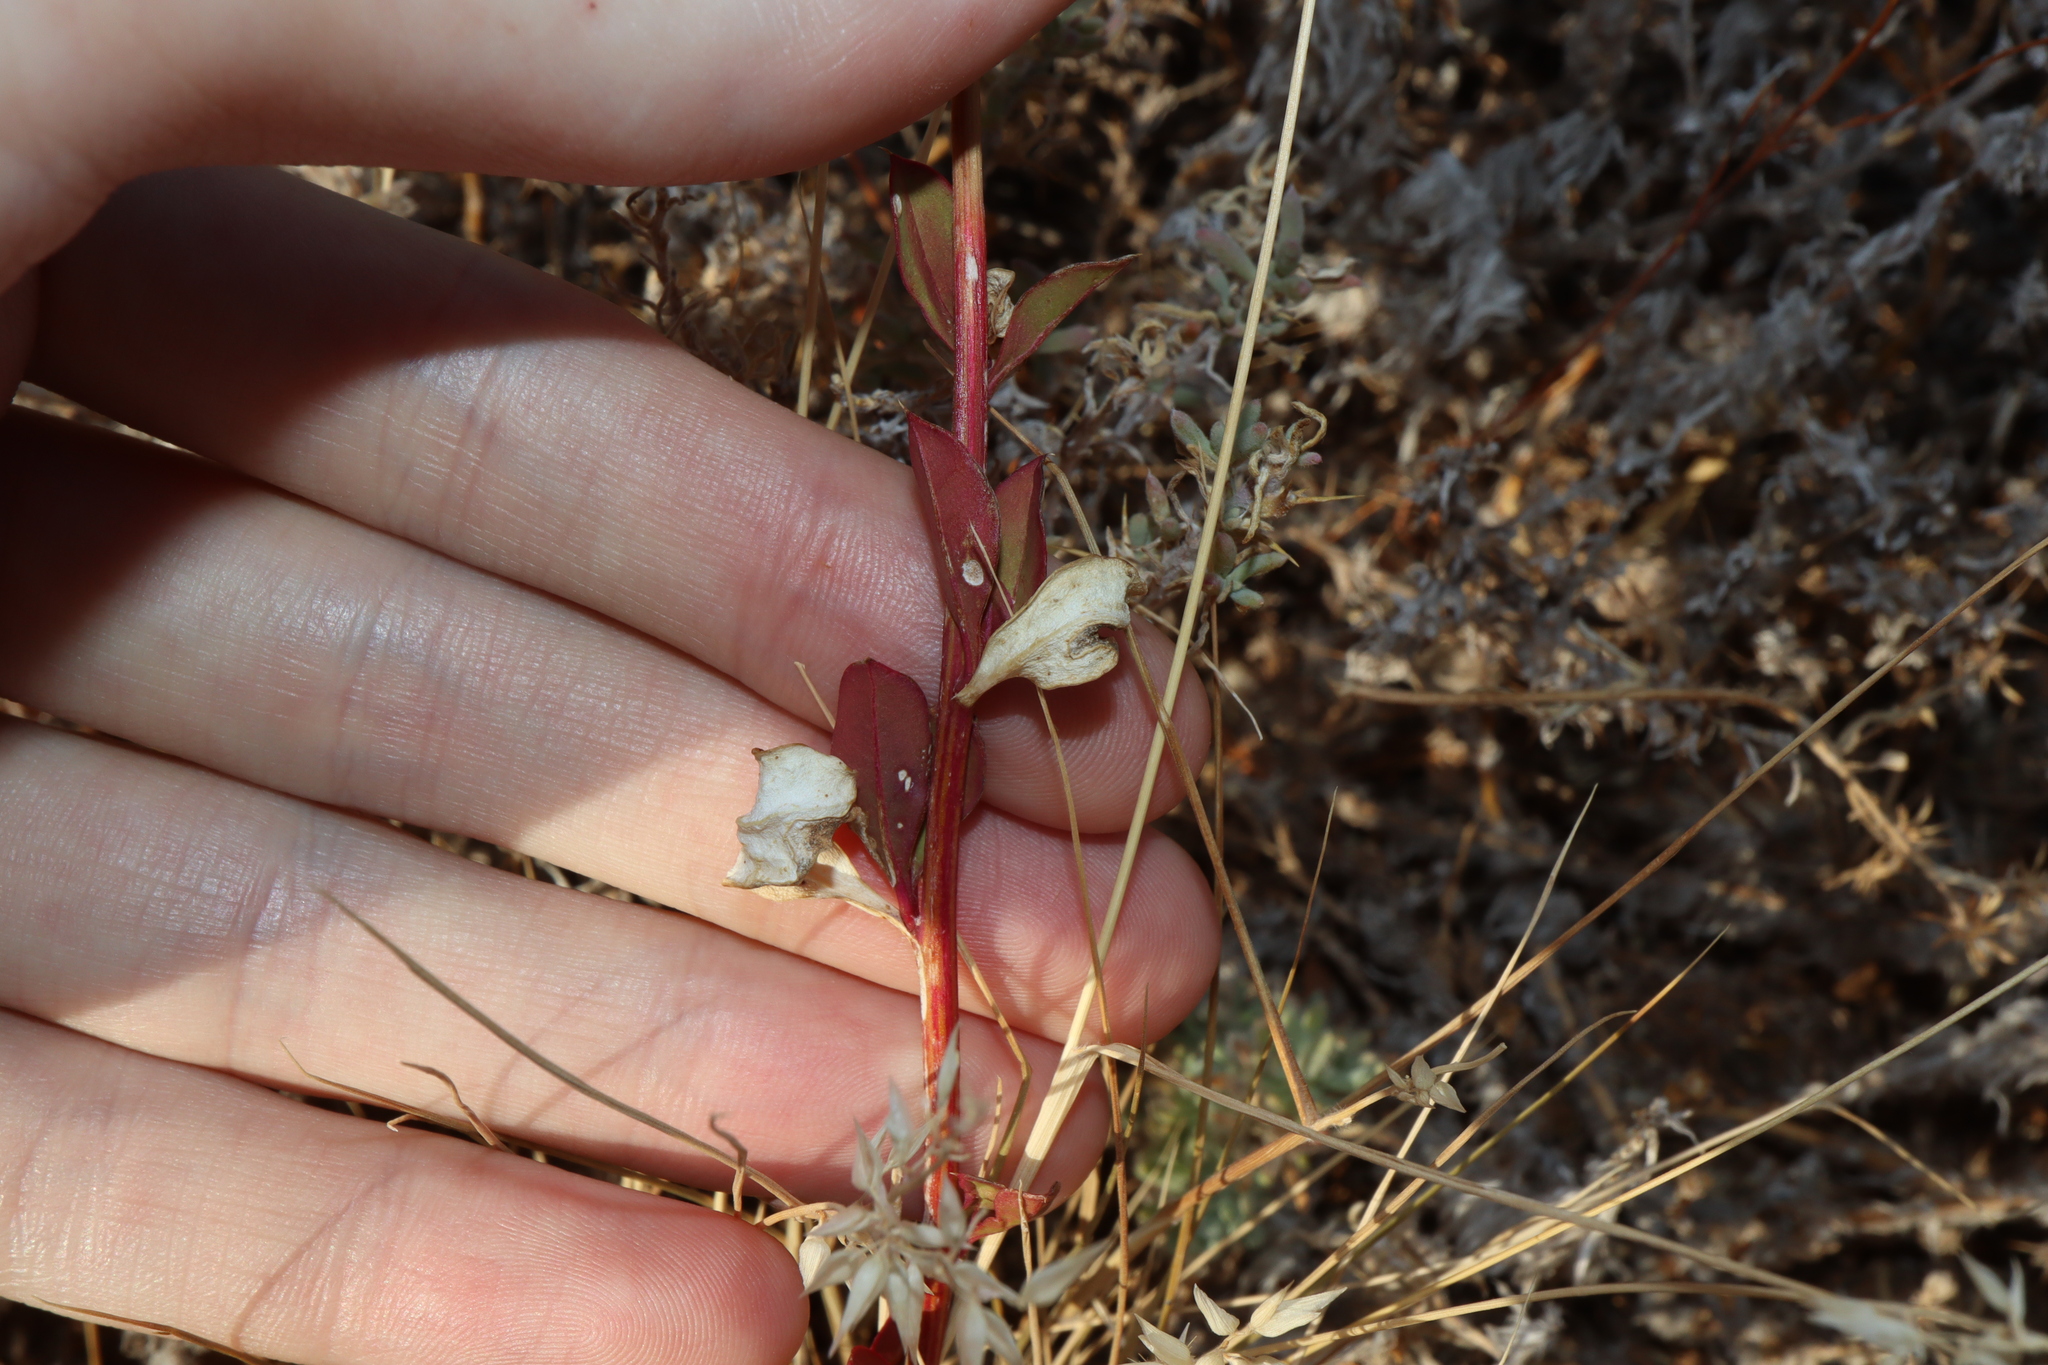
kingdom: Plantae
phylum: Tracheophyta
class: Magnoliopsida
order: Caryophyllales
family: Amaranthaceae
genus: Ptilotus
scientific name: Ptilotus nobilis
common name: Regal-foxtail
